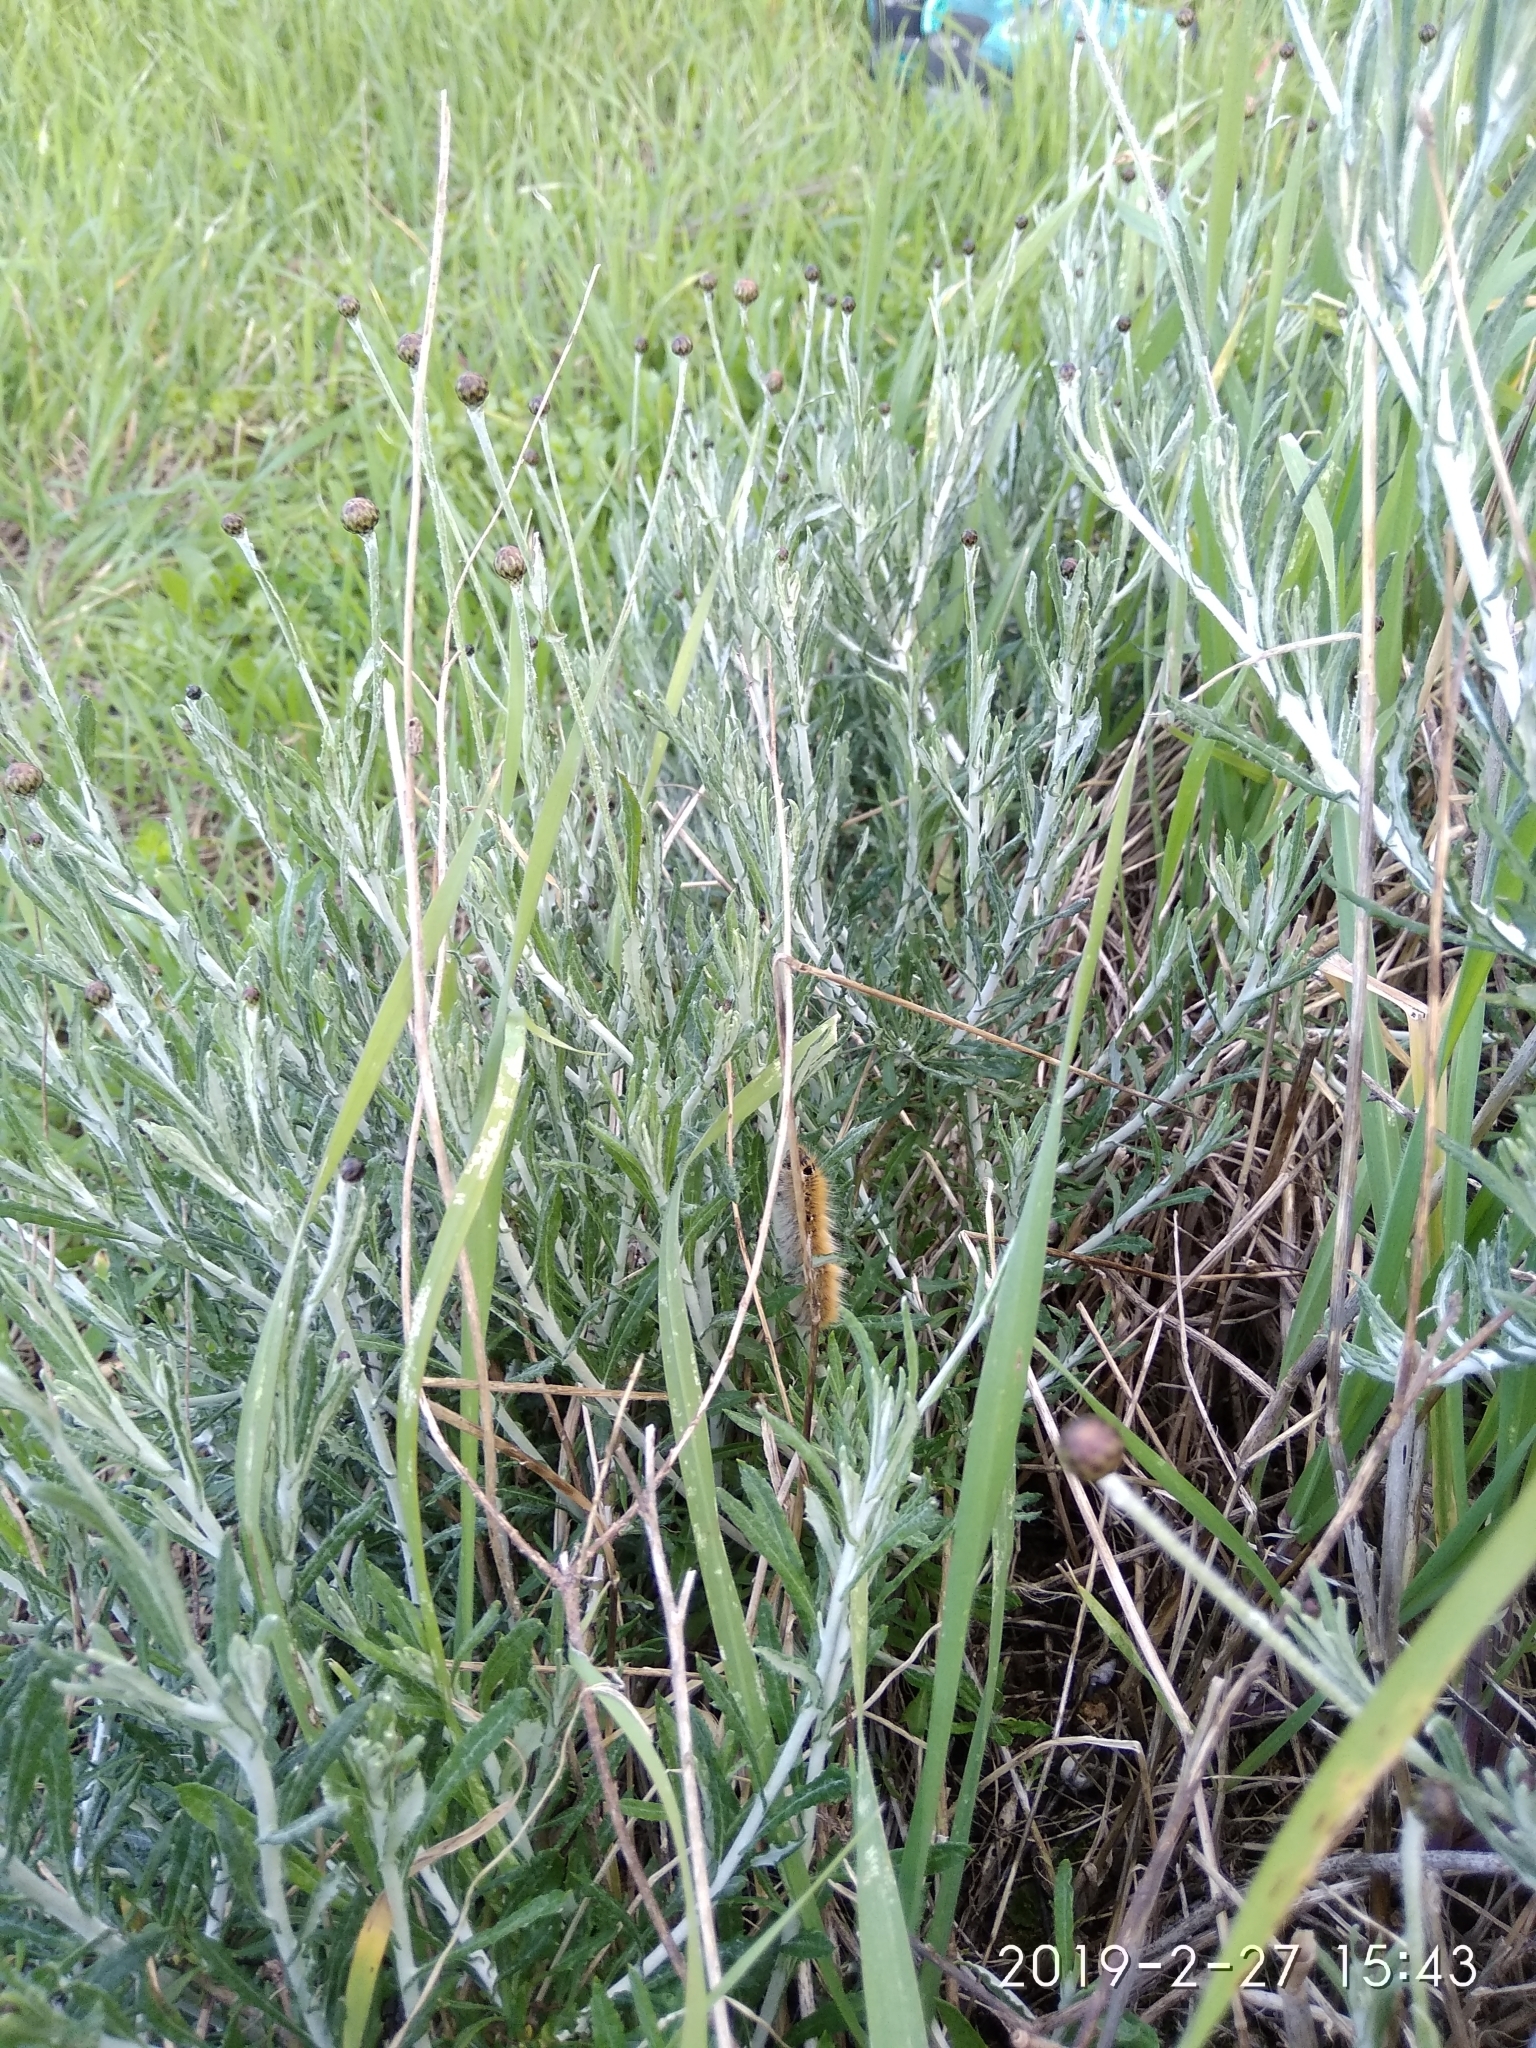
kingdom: Plantae
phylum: Tracheophyta
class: Magnoliopsida
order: Asterales
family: Asteraceae
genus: Phagnalon
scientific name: Phagnalon
